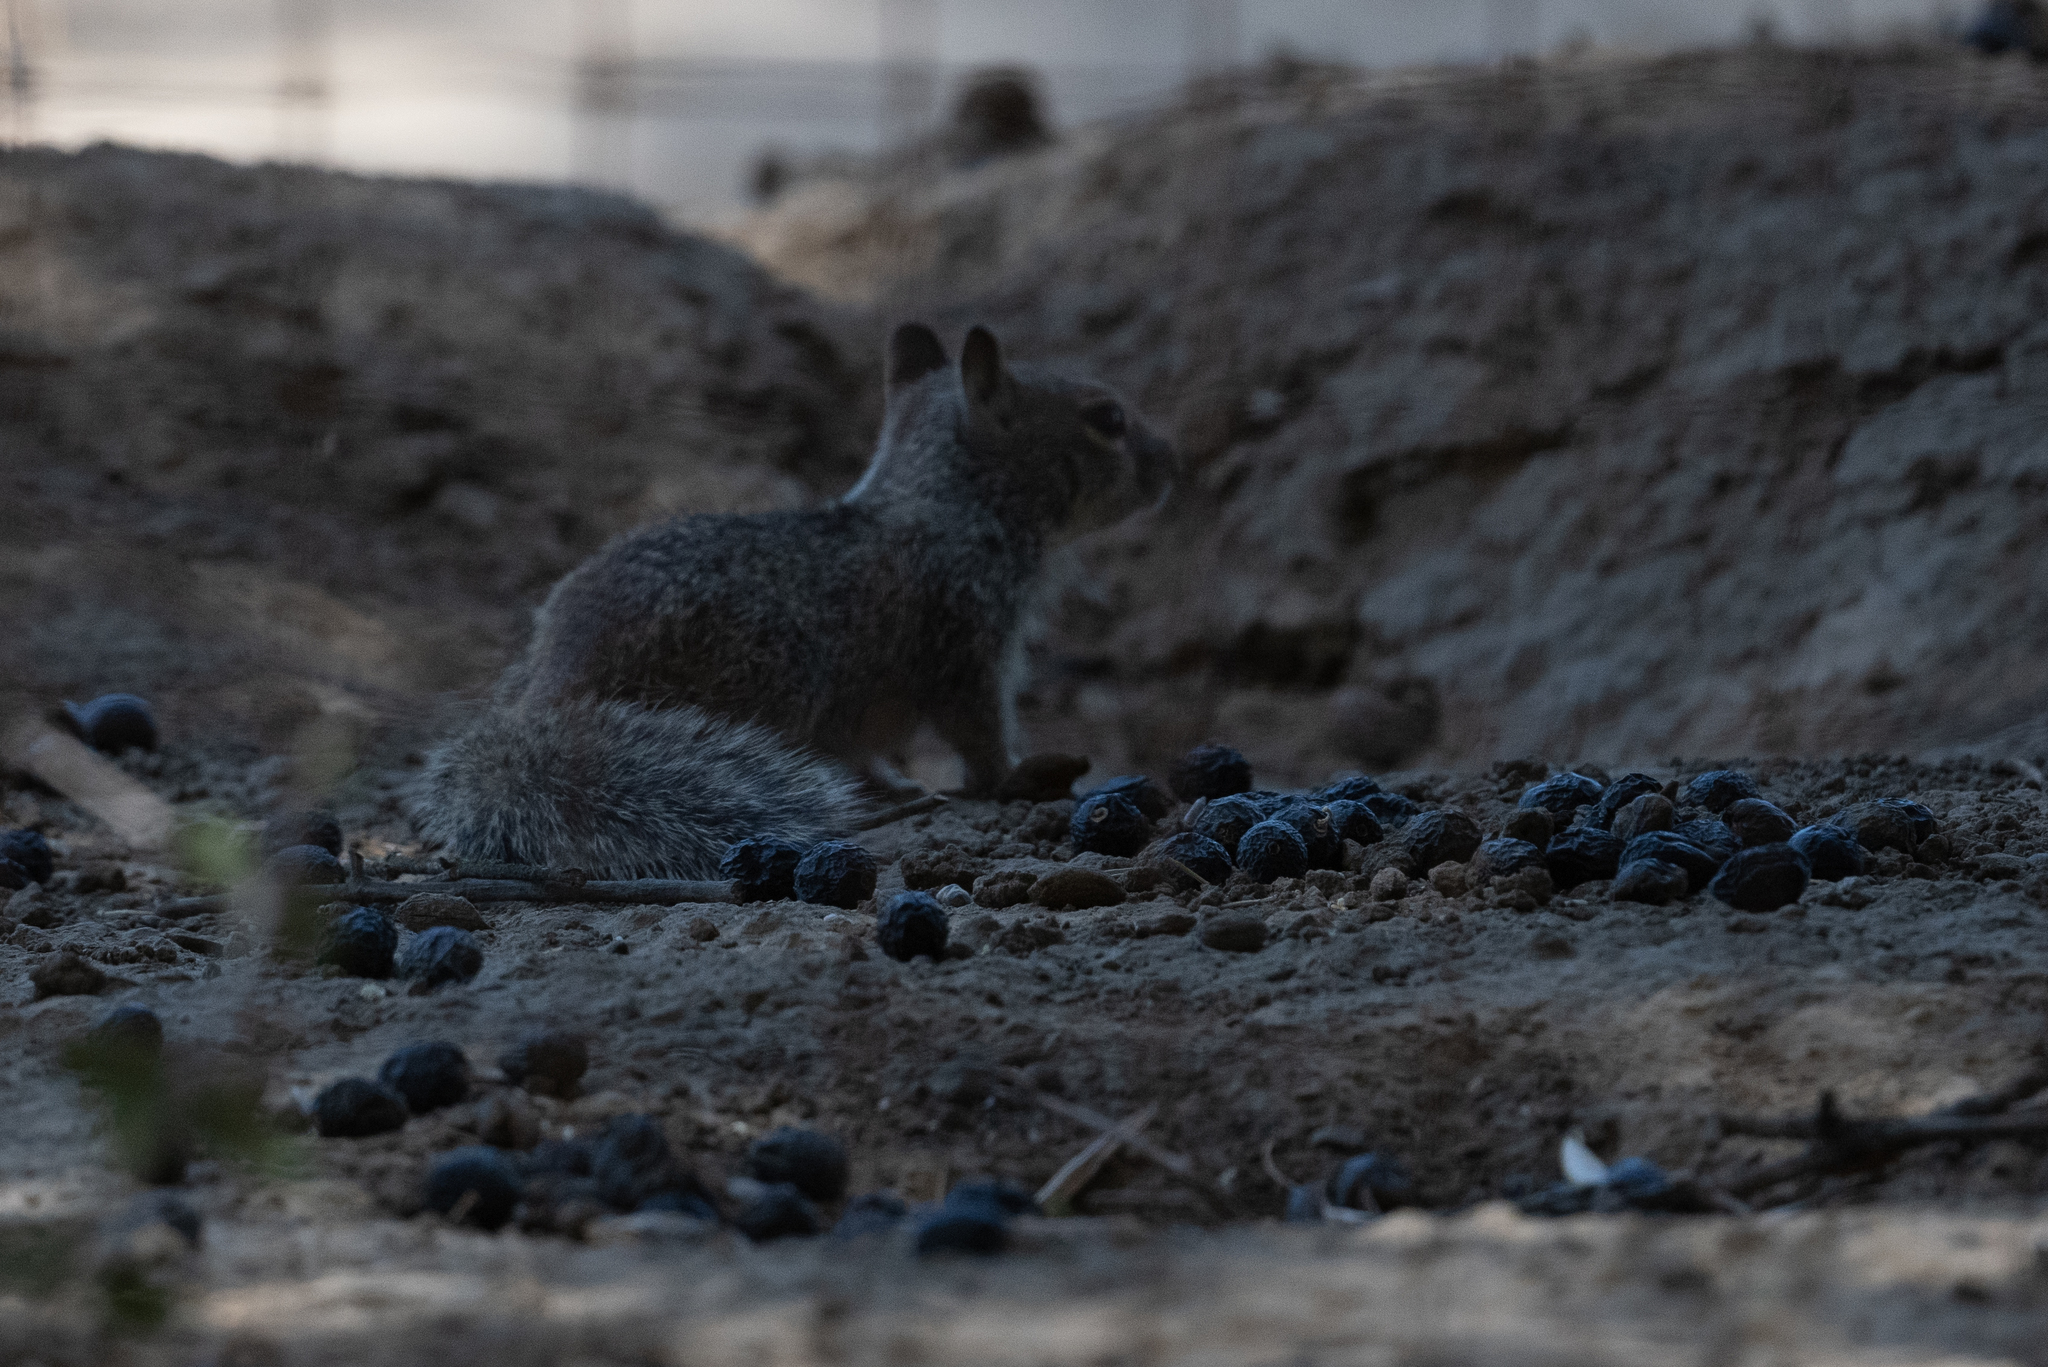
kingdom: Animalia
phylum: Chordata
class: Mammalia
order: Rodentia
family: Sciuridae
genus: Otospermophilus
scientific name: Otospermophilus beecheyi
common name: California ground squirrel
